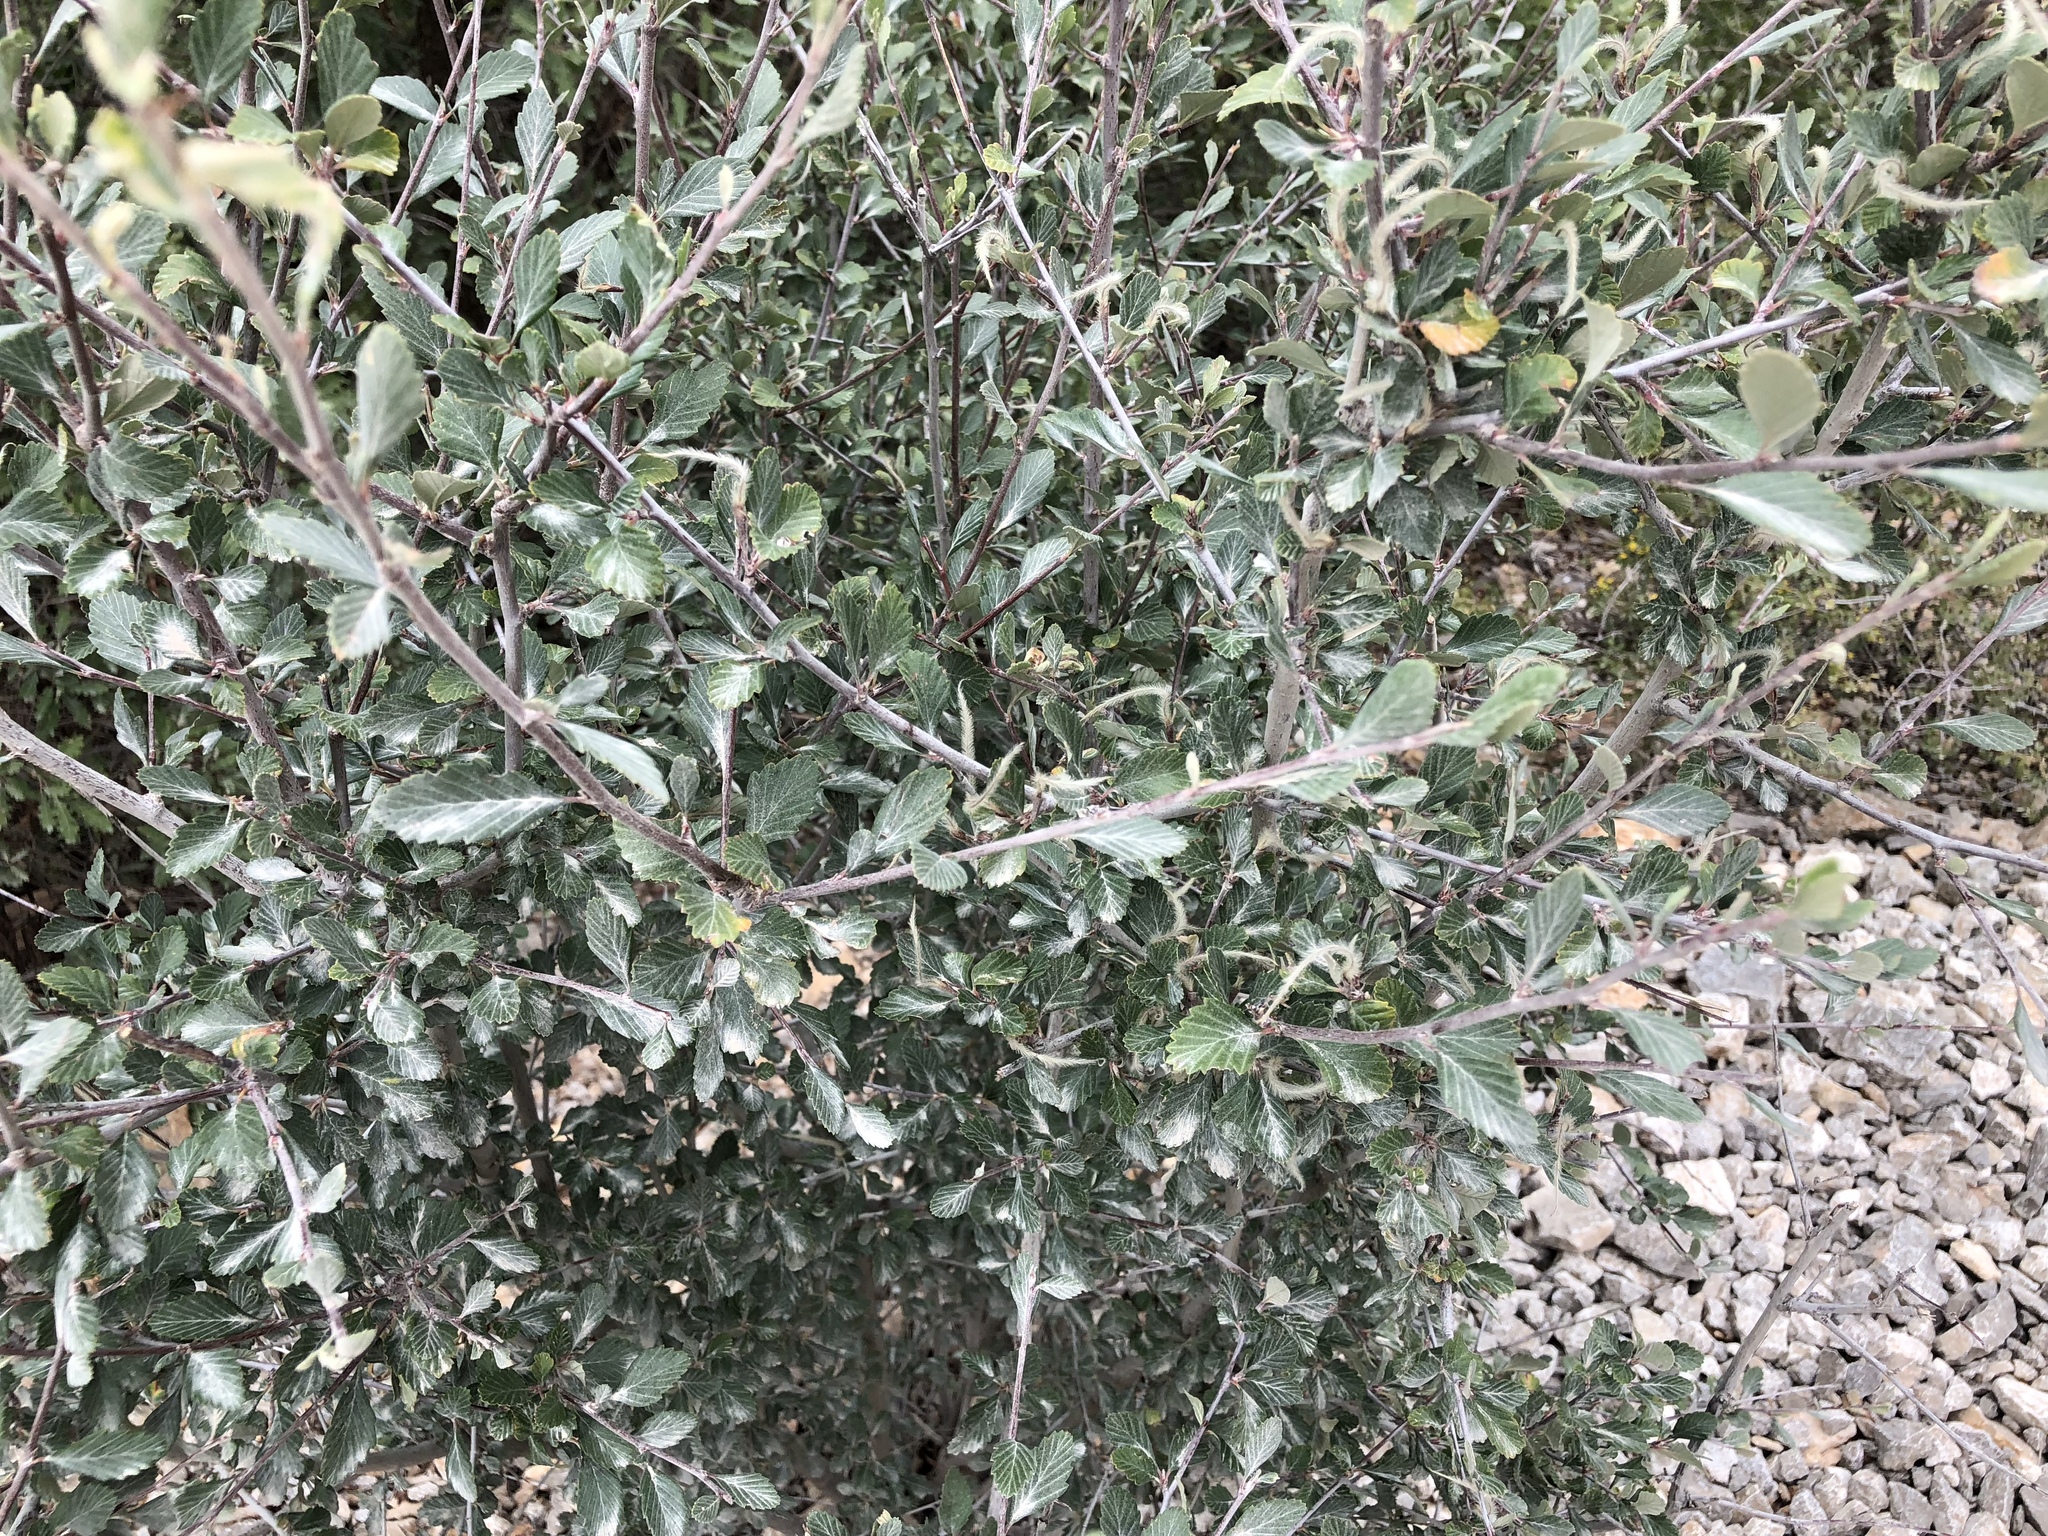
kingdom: Plantae
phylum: Tracheophyta
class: Magnoliopsida
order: Rosales
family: Rosaceae
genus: Cercocarpus
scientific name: Cercocarpus breviflorus
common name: Wright's mountain-mahogany
